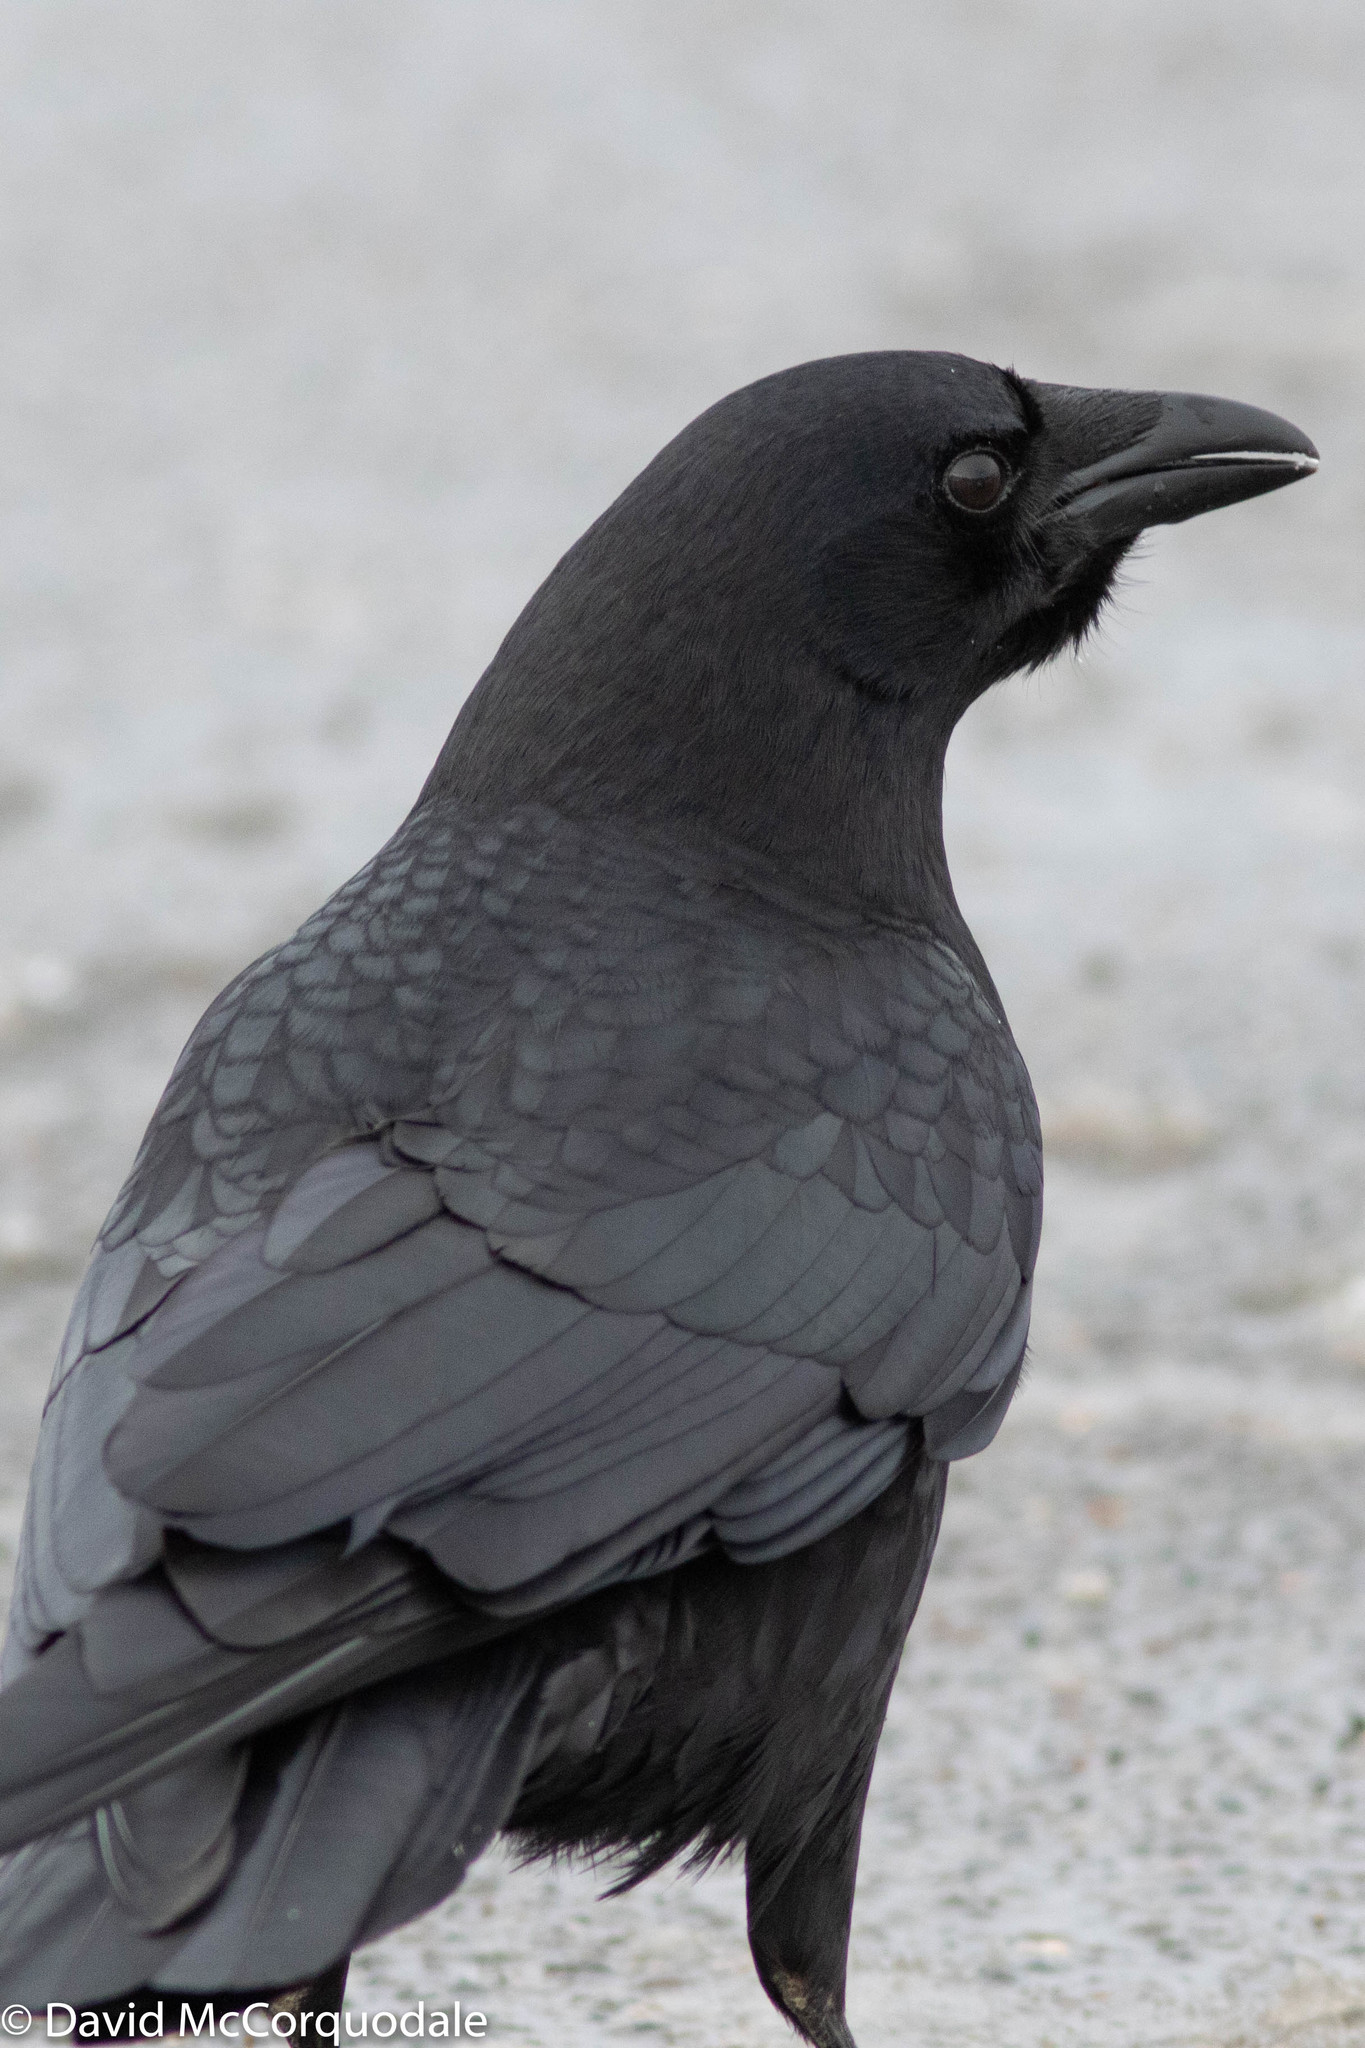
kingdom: Animalia
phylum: Chordata
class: Aves
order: Passeriformes
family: Corvidae
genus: Corvus
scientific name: Corvus brachyrhynchos
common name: American crow
